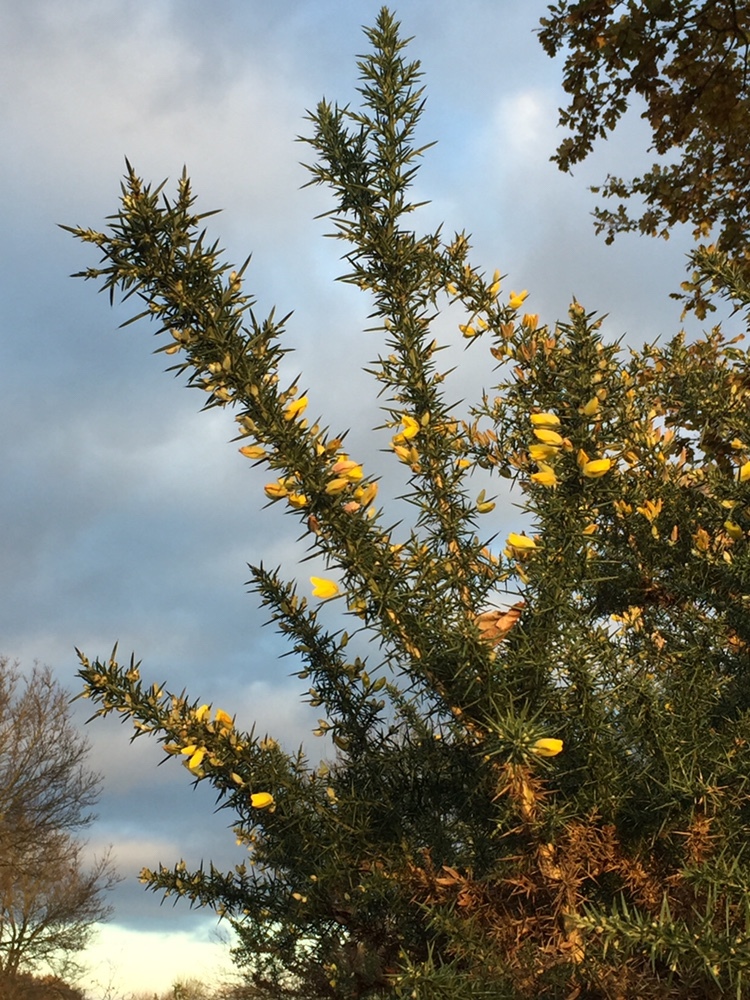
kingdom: Plantae
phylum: Tracheophyta
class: Magnoliopsida
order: Fabales
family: Fabaceae
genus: Ulex
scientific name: Ulex europaeus
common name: Common gorse
